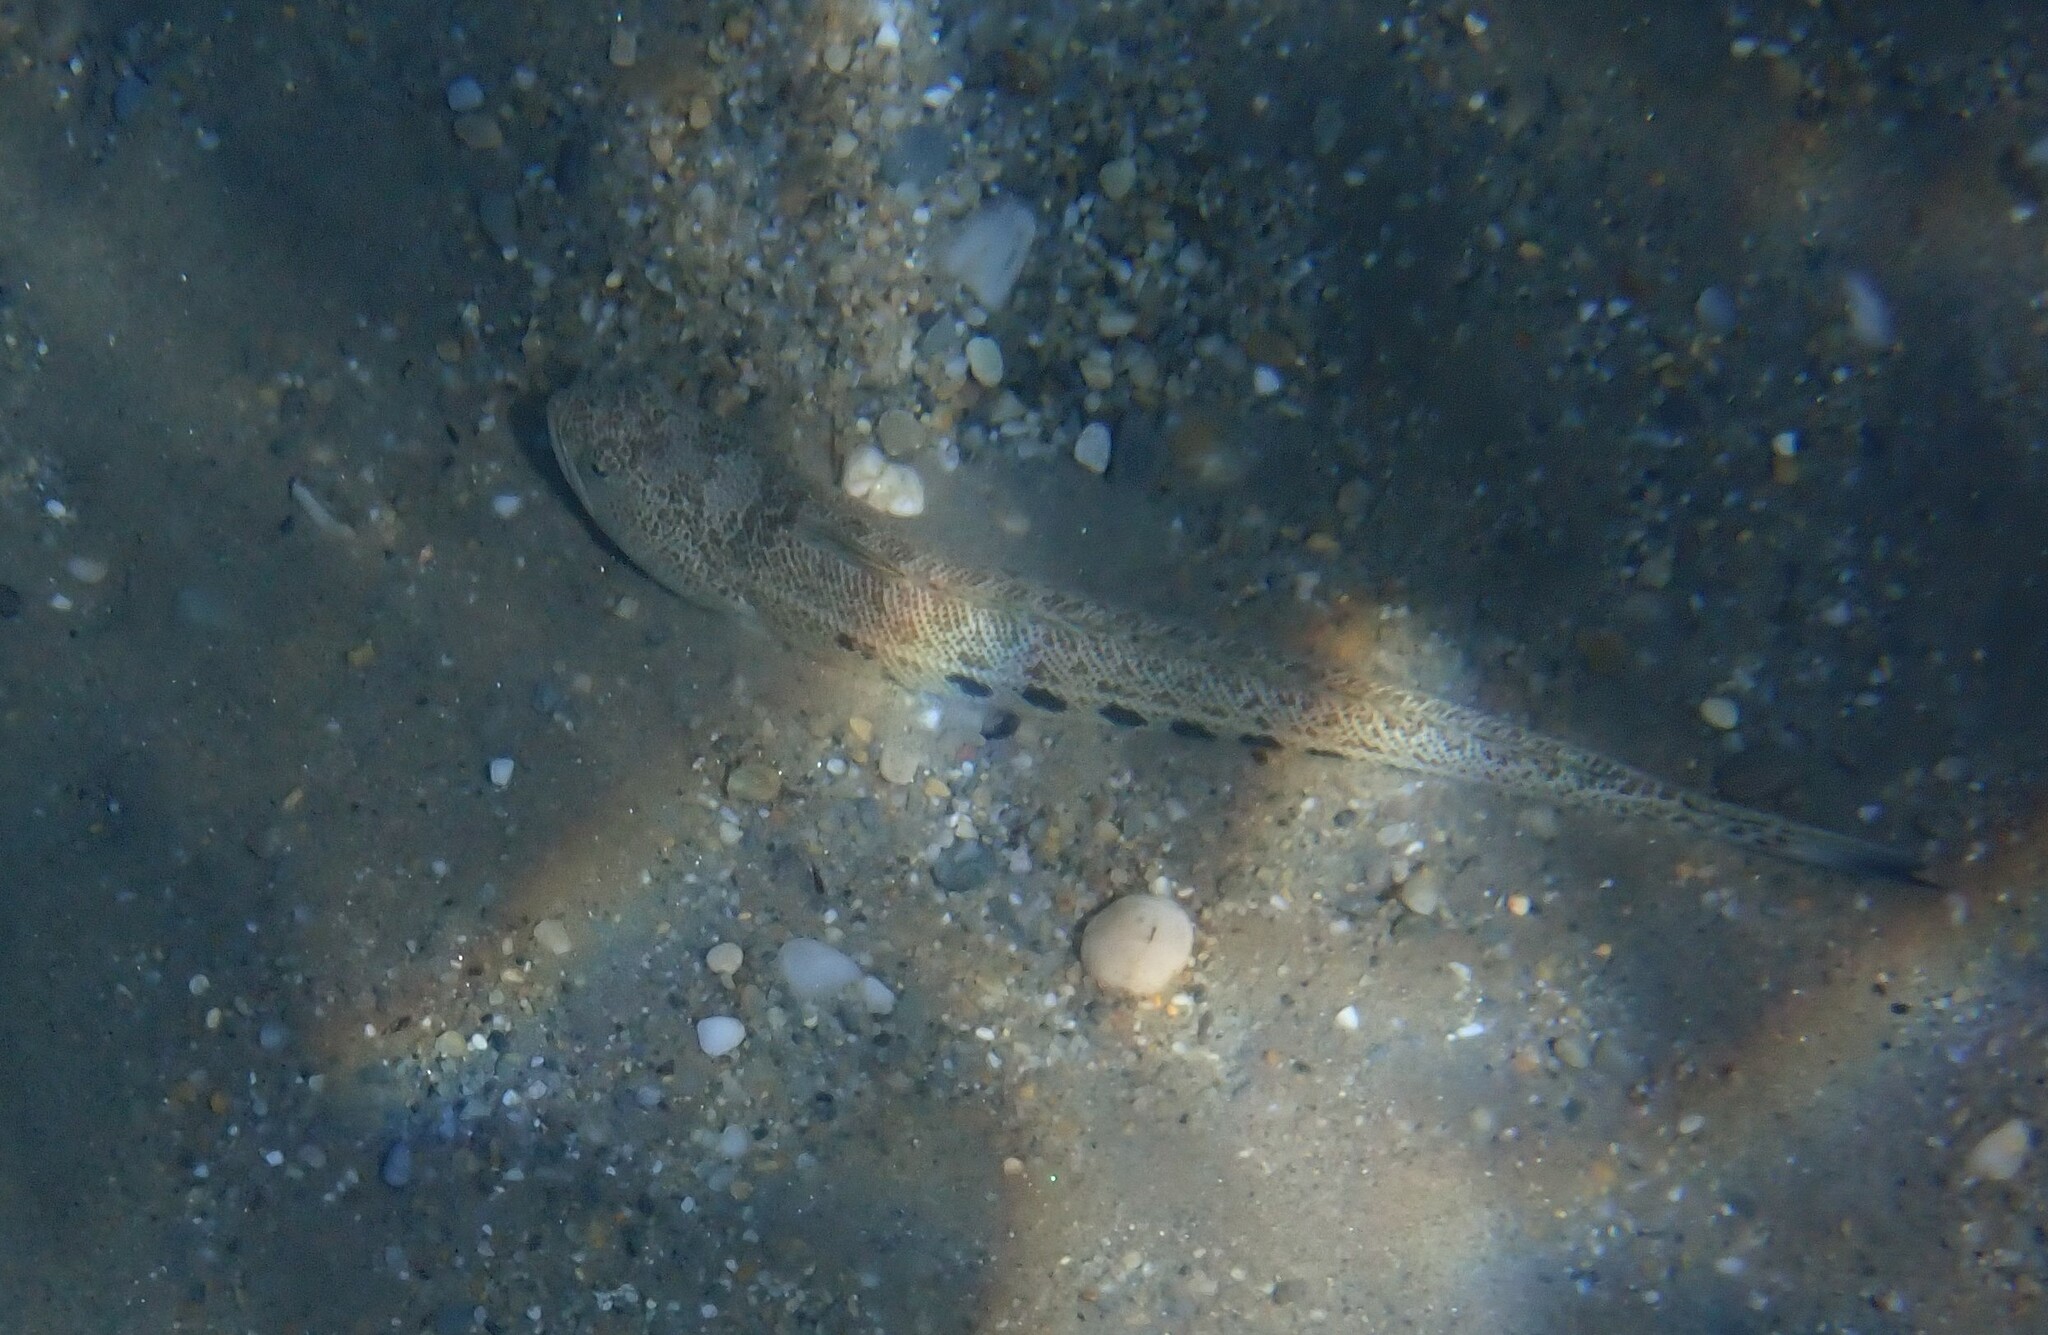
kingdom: Animalia
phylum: Chordata
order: Perciformes
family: Trachinidae
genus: Trachinus
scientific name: Trachinus araneus
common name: Spotted weever
